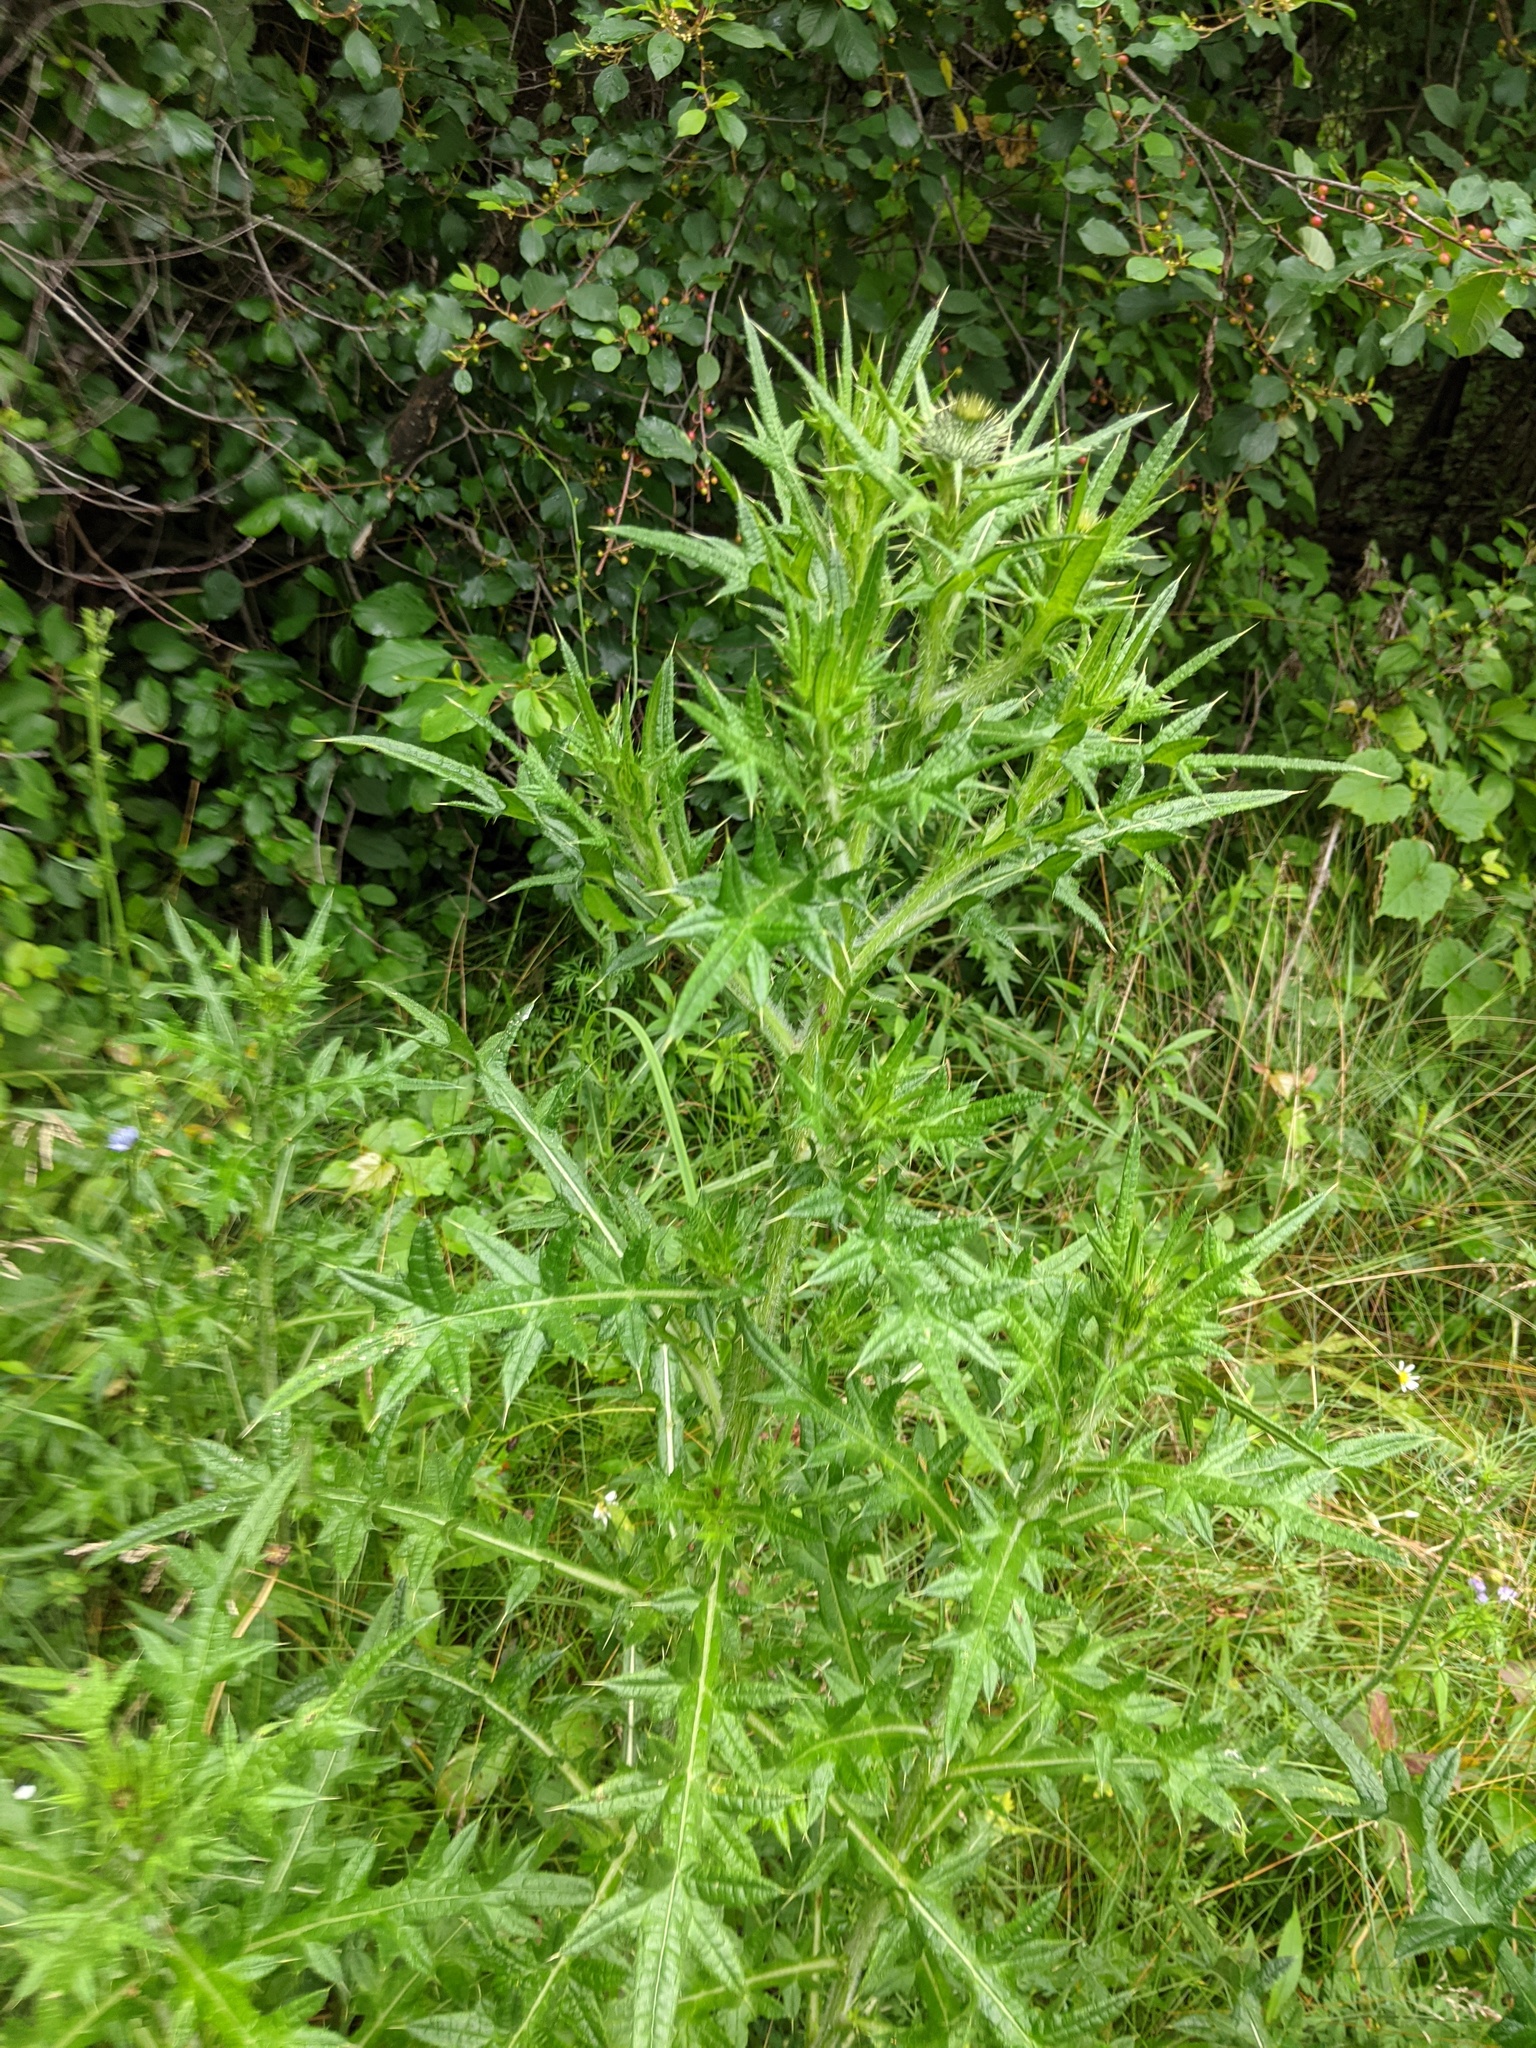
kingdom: Plantae
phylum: Tracheophyta
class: Magnoliopsida
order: Asterales
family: Asteraceae
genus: Cirsium
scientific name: Cirsium vulgare
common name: Bull thistle
